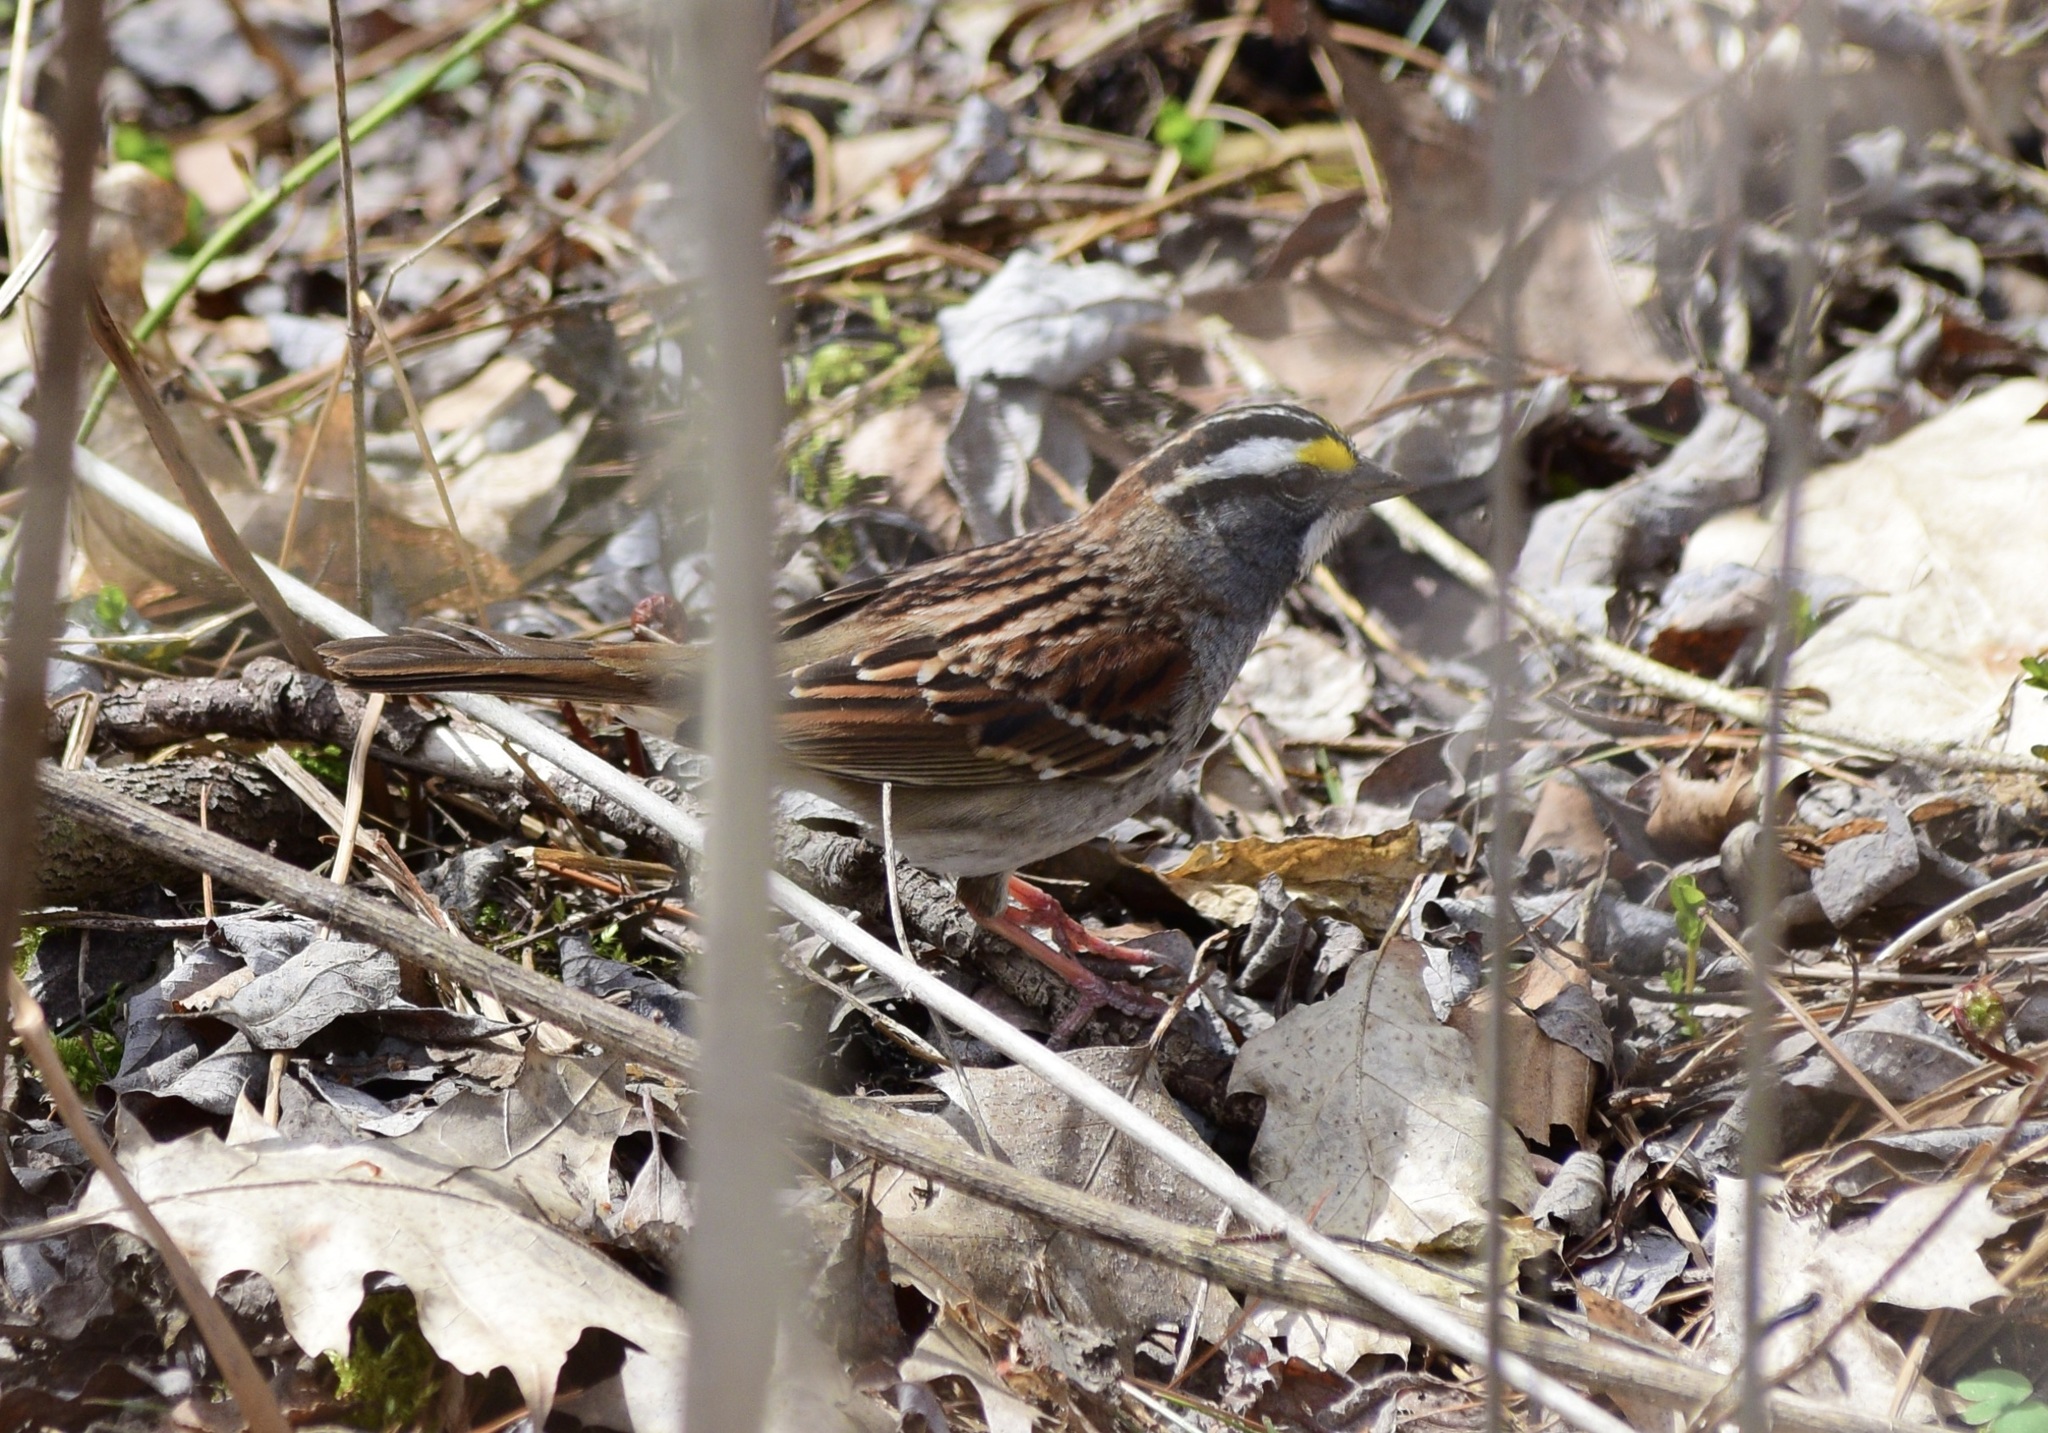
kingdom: Animalia
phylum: Chordata
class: Aves
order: Passeriformes
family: Passerellidae
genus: Zonotrichia
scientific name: Zonotrichia albicollis
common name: White-throated sparrow
